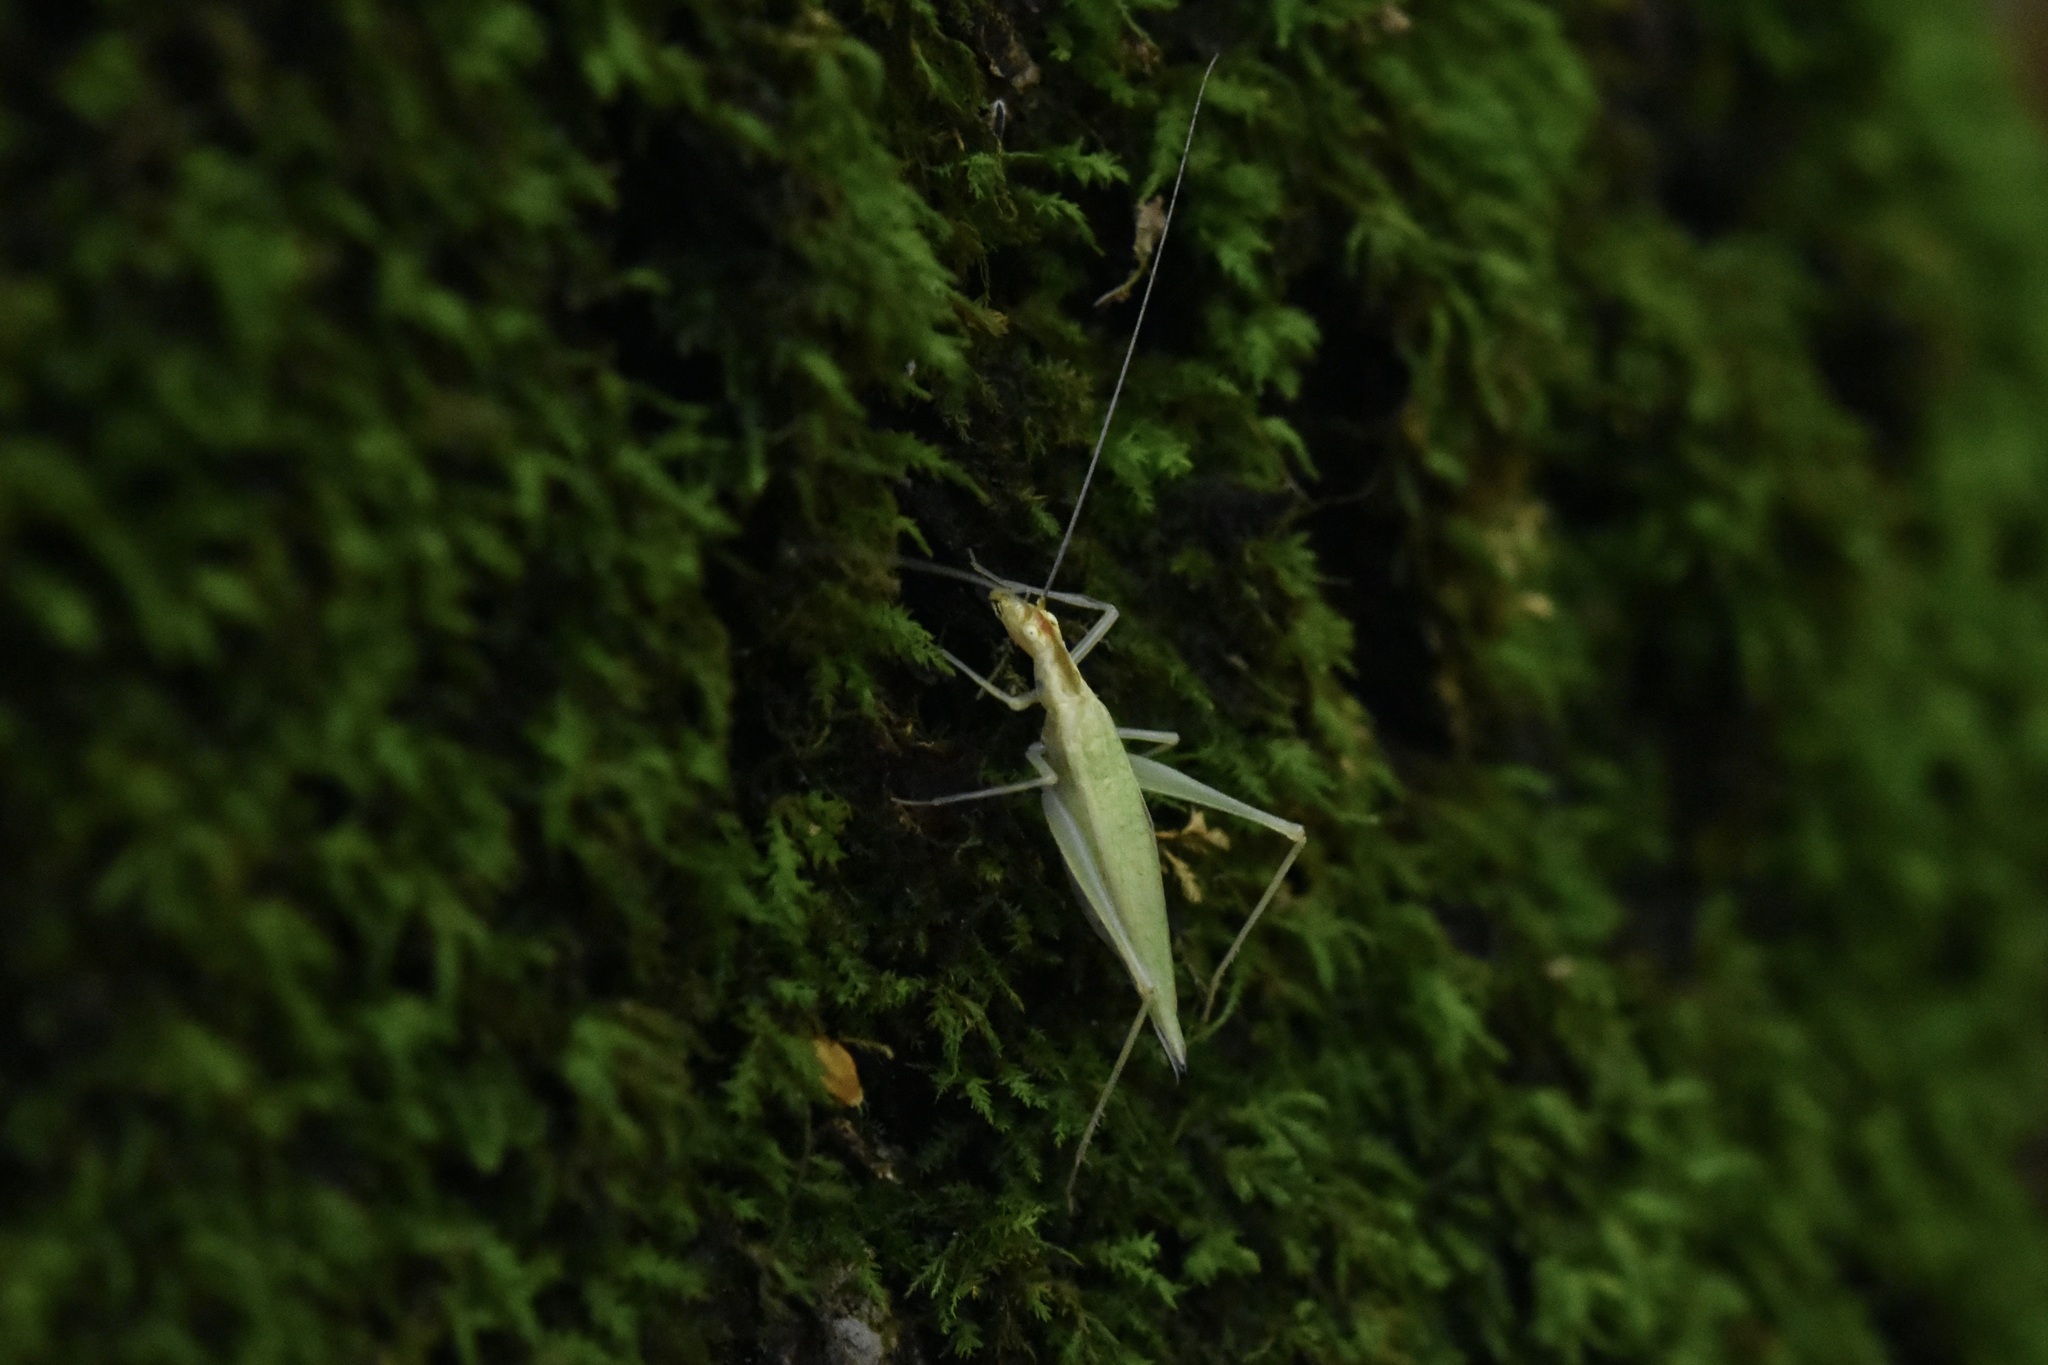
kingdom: Animalia
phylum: Arthropoda
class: Insecta
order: Orthoptera
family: Gryllidae
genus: Oecanthus
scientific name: Oecanthus niveus
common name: Narrow-winged tree cricket
